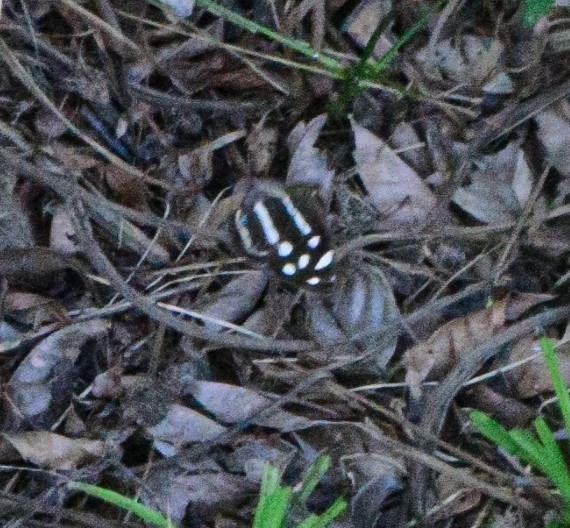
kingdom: Animalia
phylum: Arthropoda
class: Insecta
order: Lepidoptera
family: Nymphalidae
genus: Dynamine
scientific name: Dynamine mylitta
